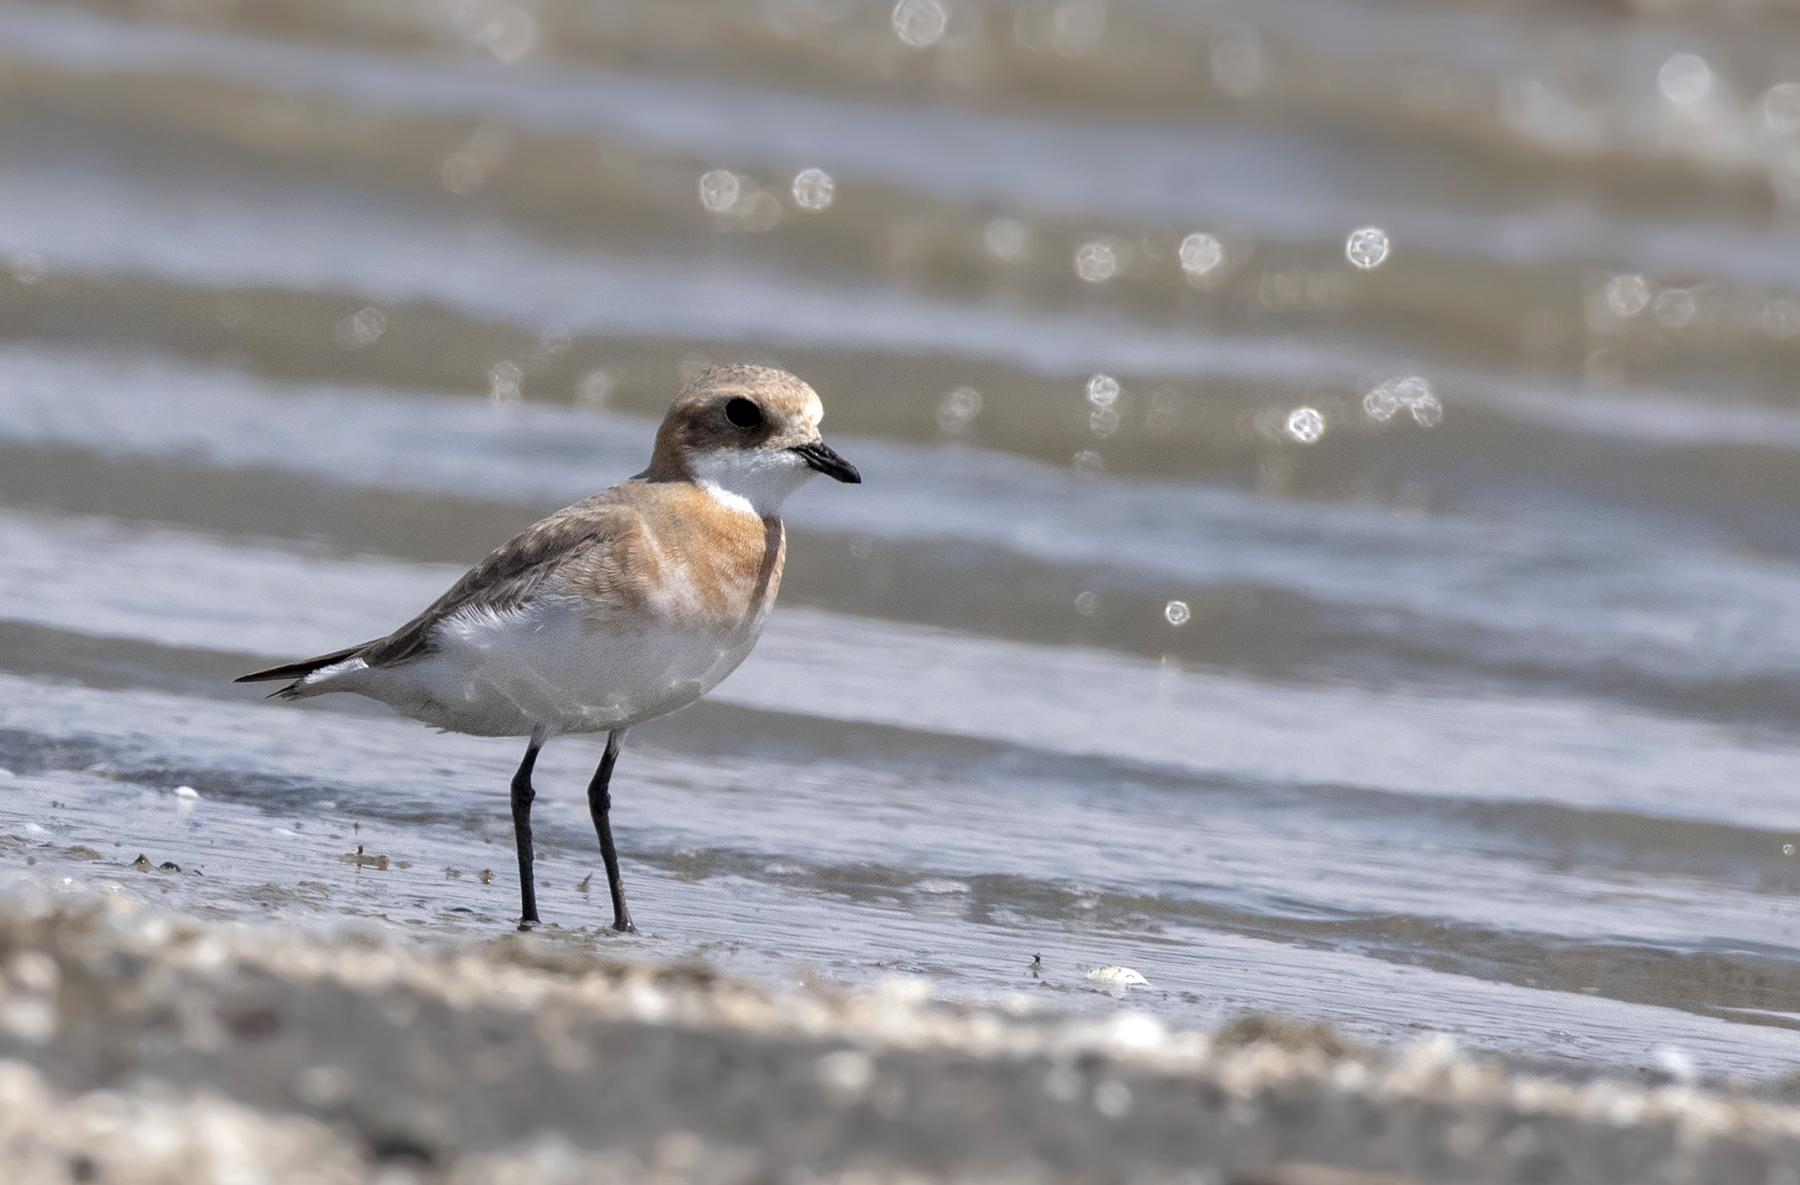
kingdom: Animalia
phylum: Chordata
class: Aves
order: Charadriiformes
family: Charadriidae
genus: Anarhynchus
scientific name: Anarhynchus
